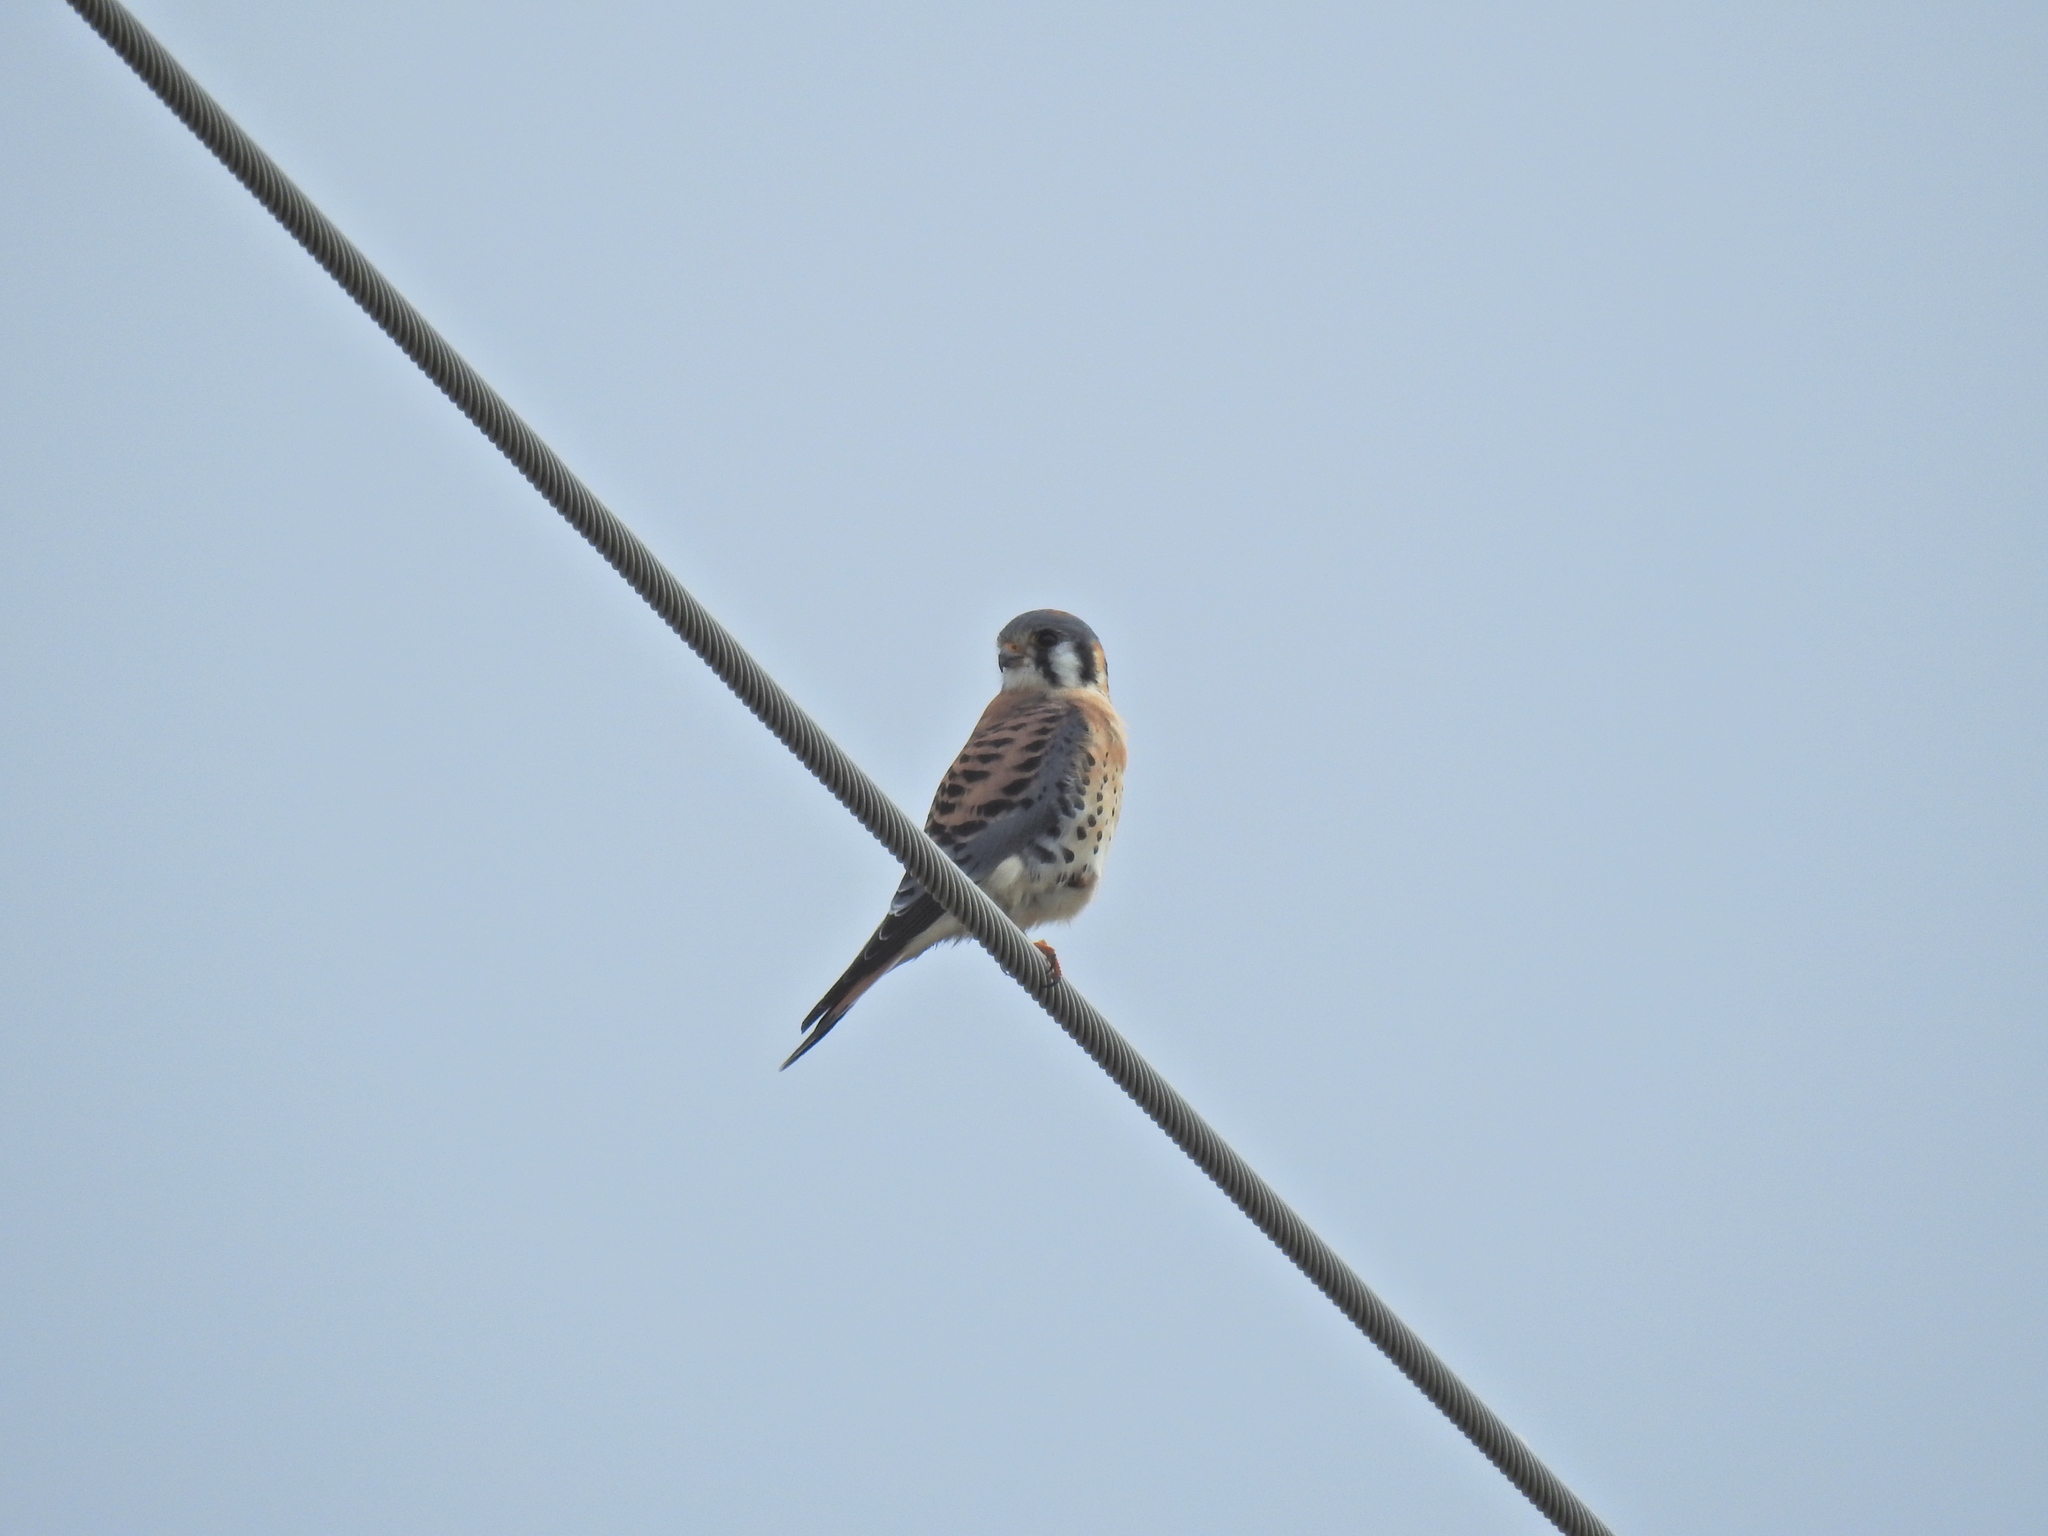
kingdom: Animalia
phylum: Chordata
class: Aves
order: Falconiformes
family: Falconidae
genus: Falco
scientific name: Falco sparverius
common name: American kestrel
